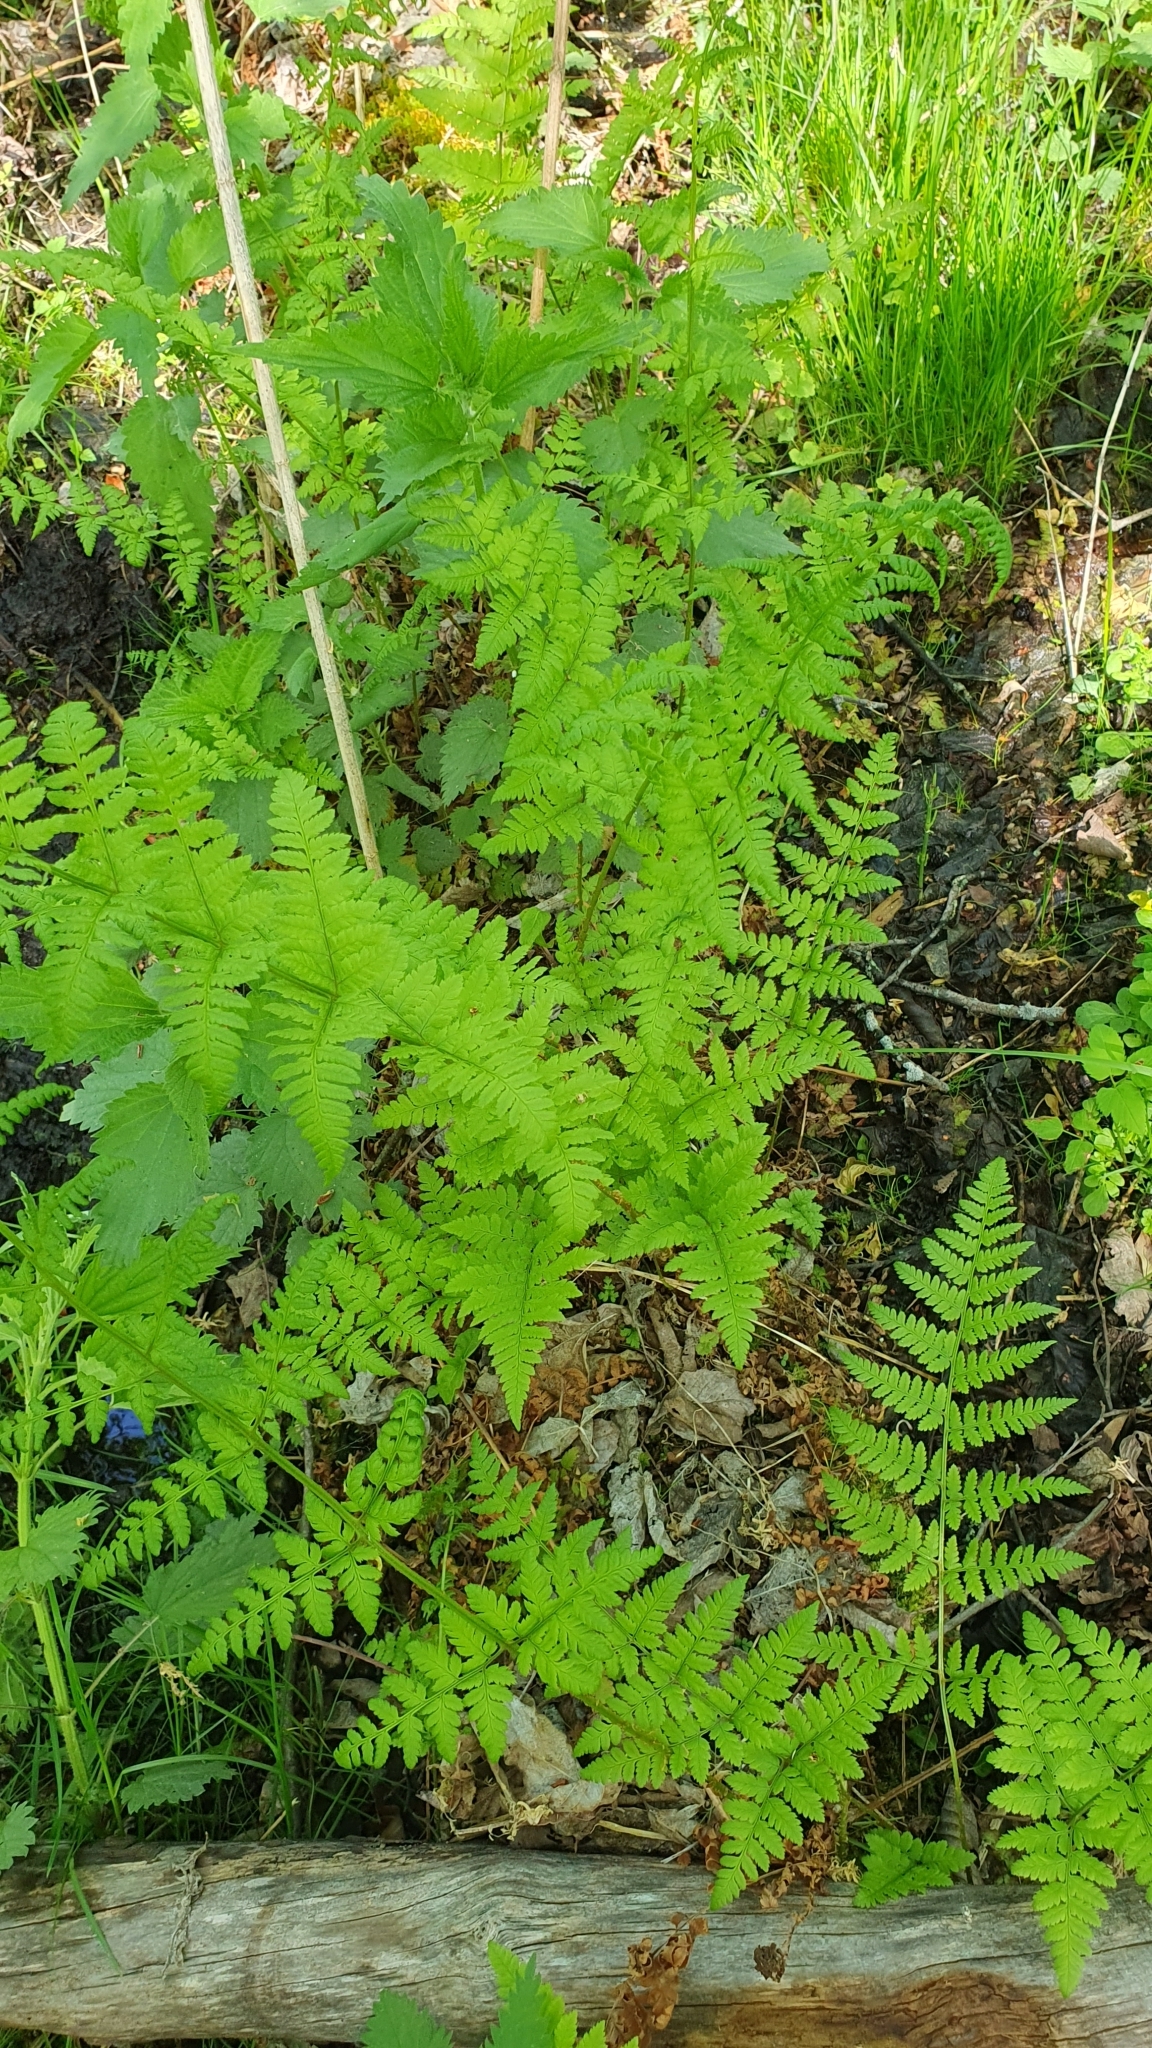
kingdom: Plantae
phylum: Tracheophyta
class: Polypodiopsida
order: Polypodiales
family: Dryopteridaceae
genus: Dryopteris
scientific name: Dryopteris carthusiana
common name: Narrow buckler-fern
